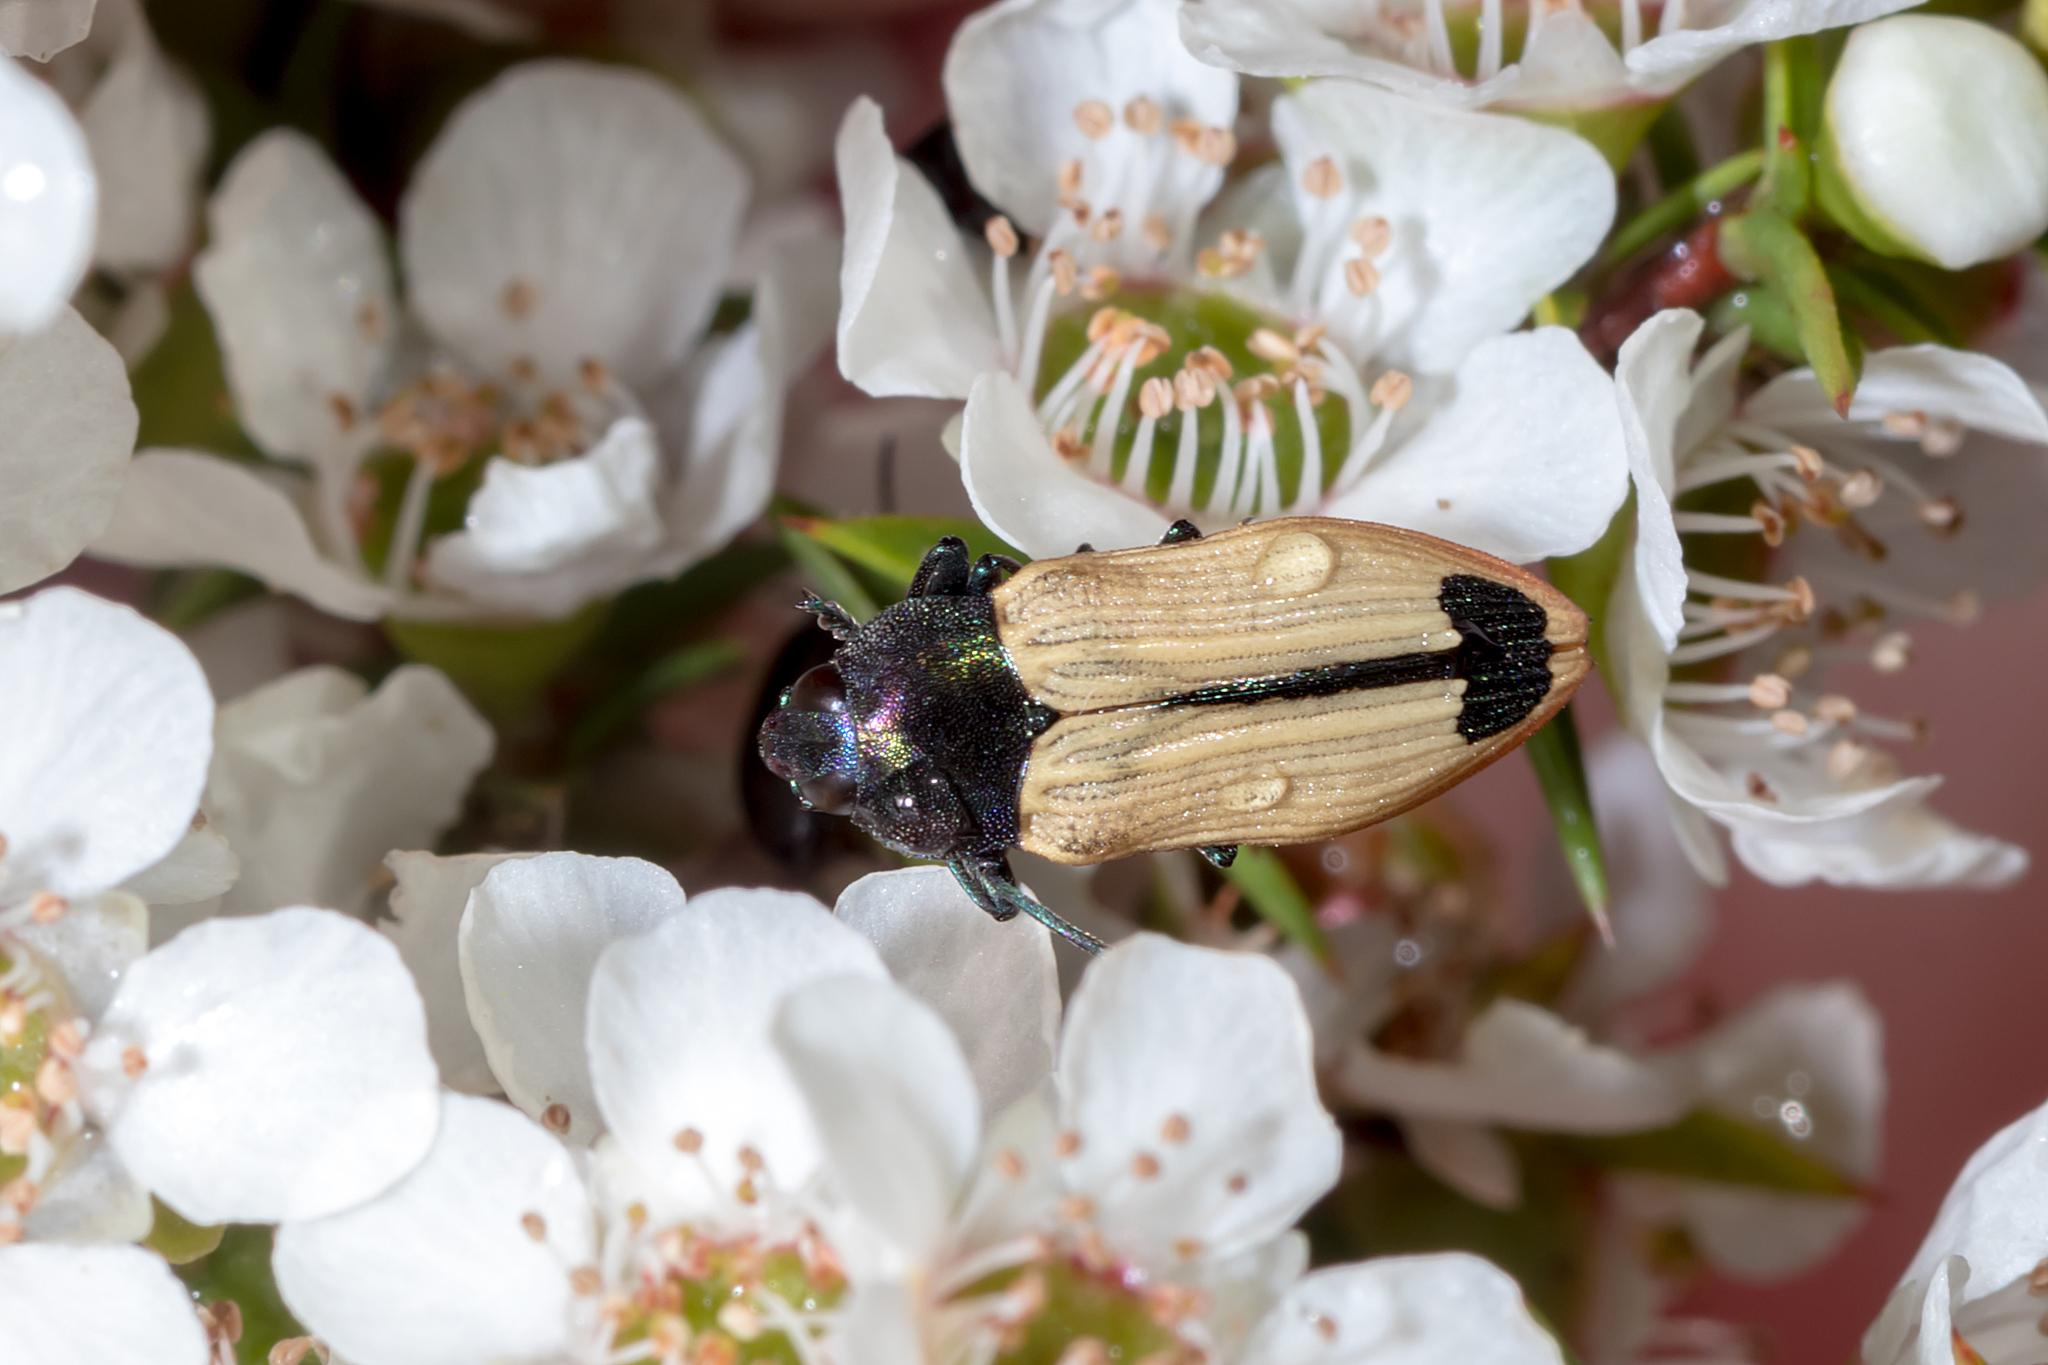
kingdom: Animalia
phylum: Arthropoda
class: Insecta
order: Coleoptera
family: Buprestidae
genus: Castiarina
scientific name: Castiarina fossoria
